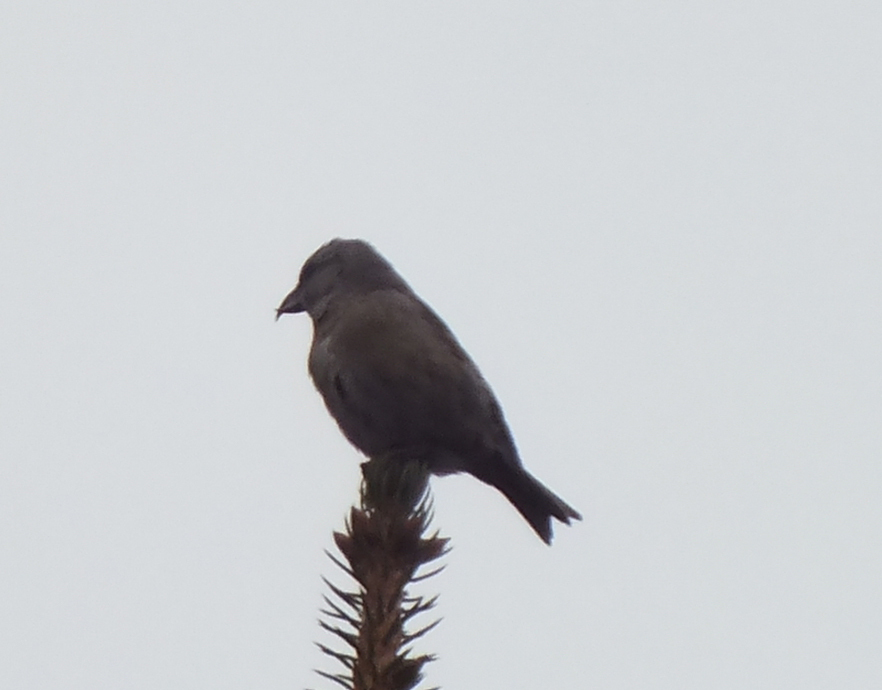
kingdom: Animalia
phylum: Chordata
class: Aves
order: Passeriformes
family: Fringillidae
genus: Loxia
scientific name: Loxia curvirostra
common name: Red crossbill
